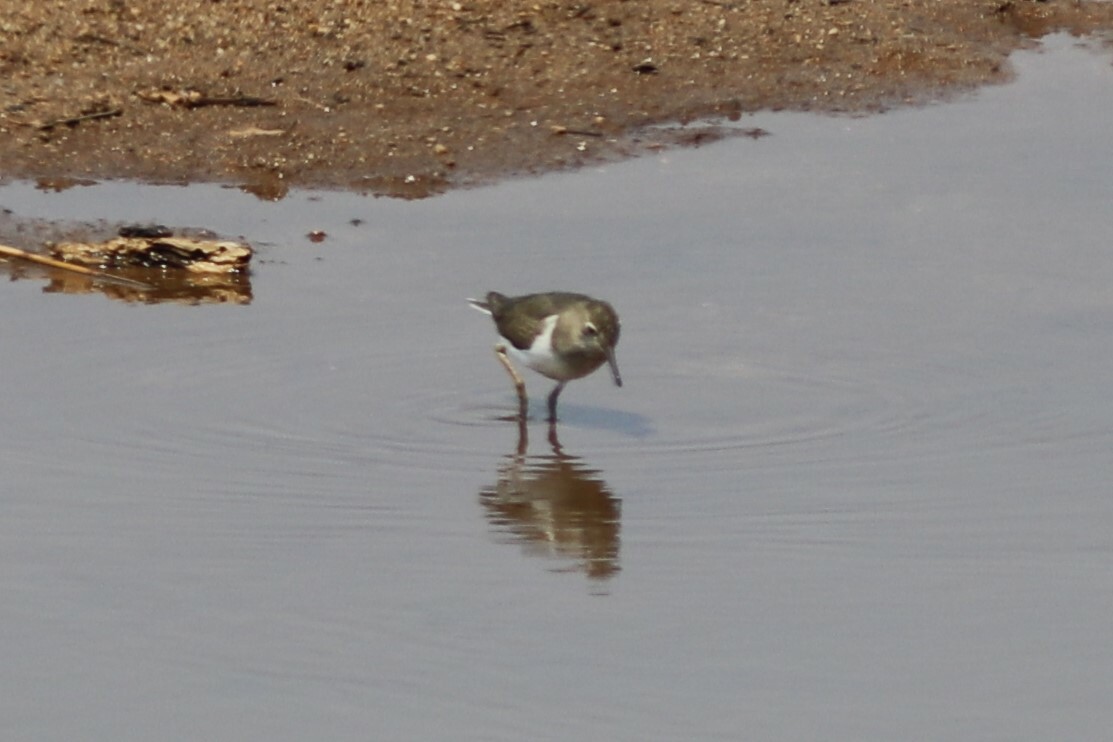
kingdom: Animalia
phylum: Chordata
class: Aves
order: Charadriiformes
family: Scolopacidae
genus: Actitis
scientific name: Actitis hypoleucos
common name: Common sandpiper
